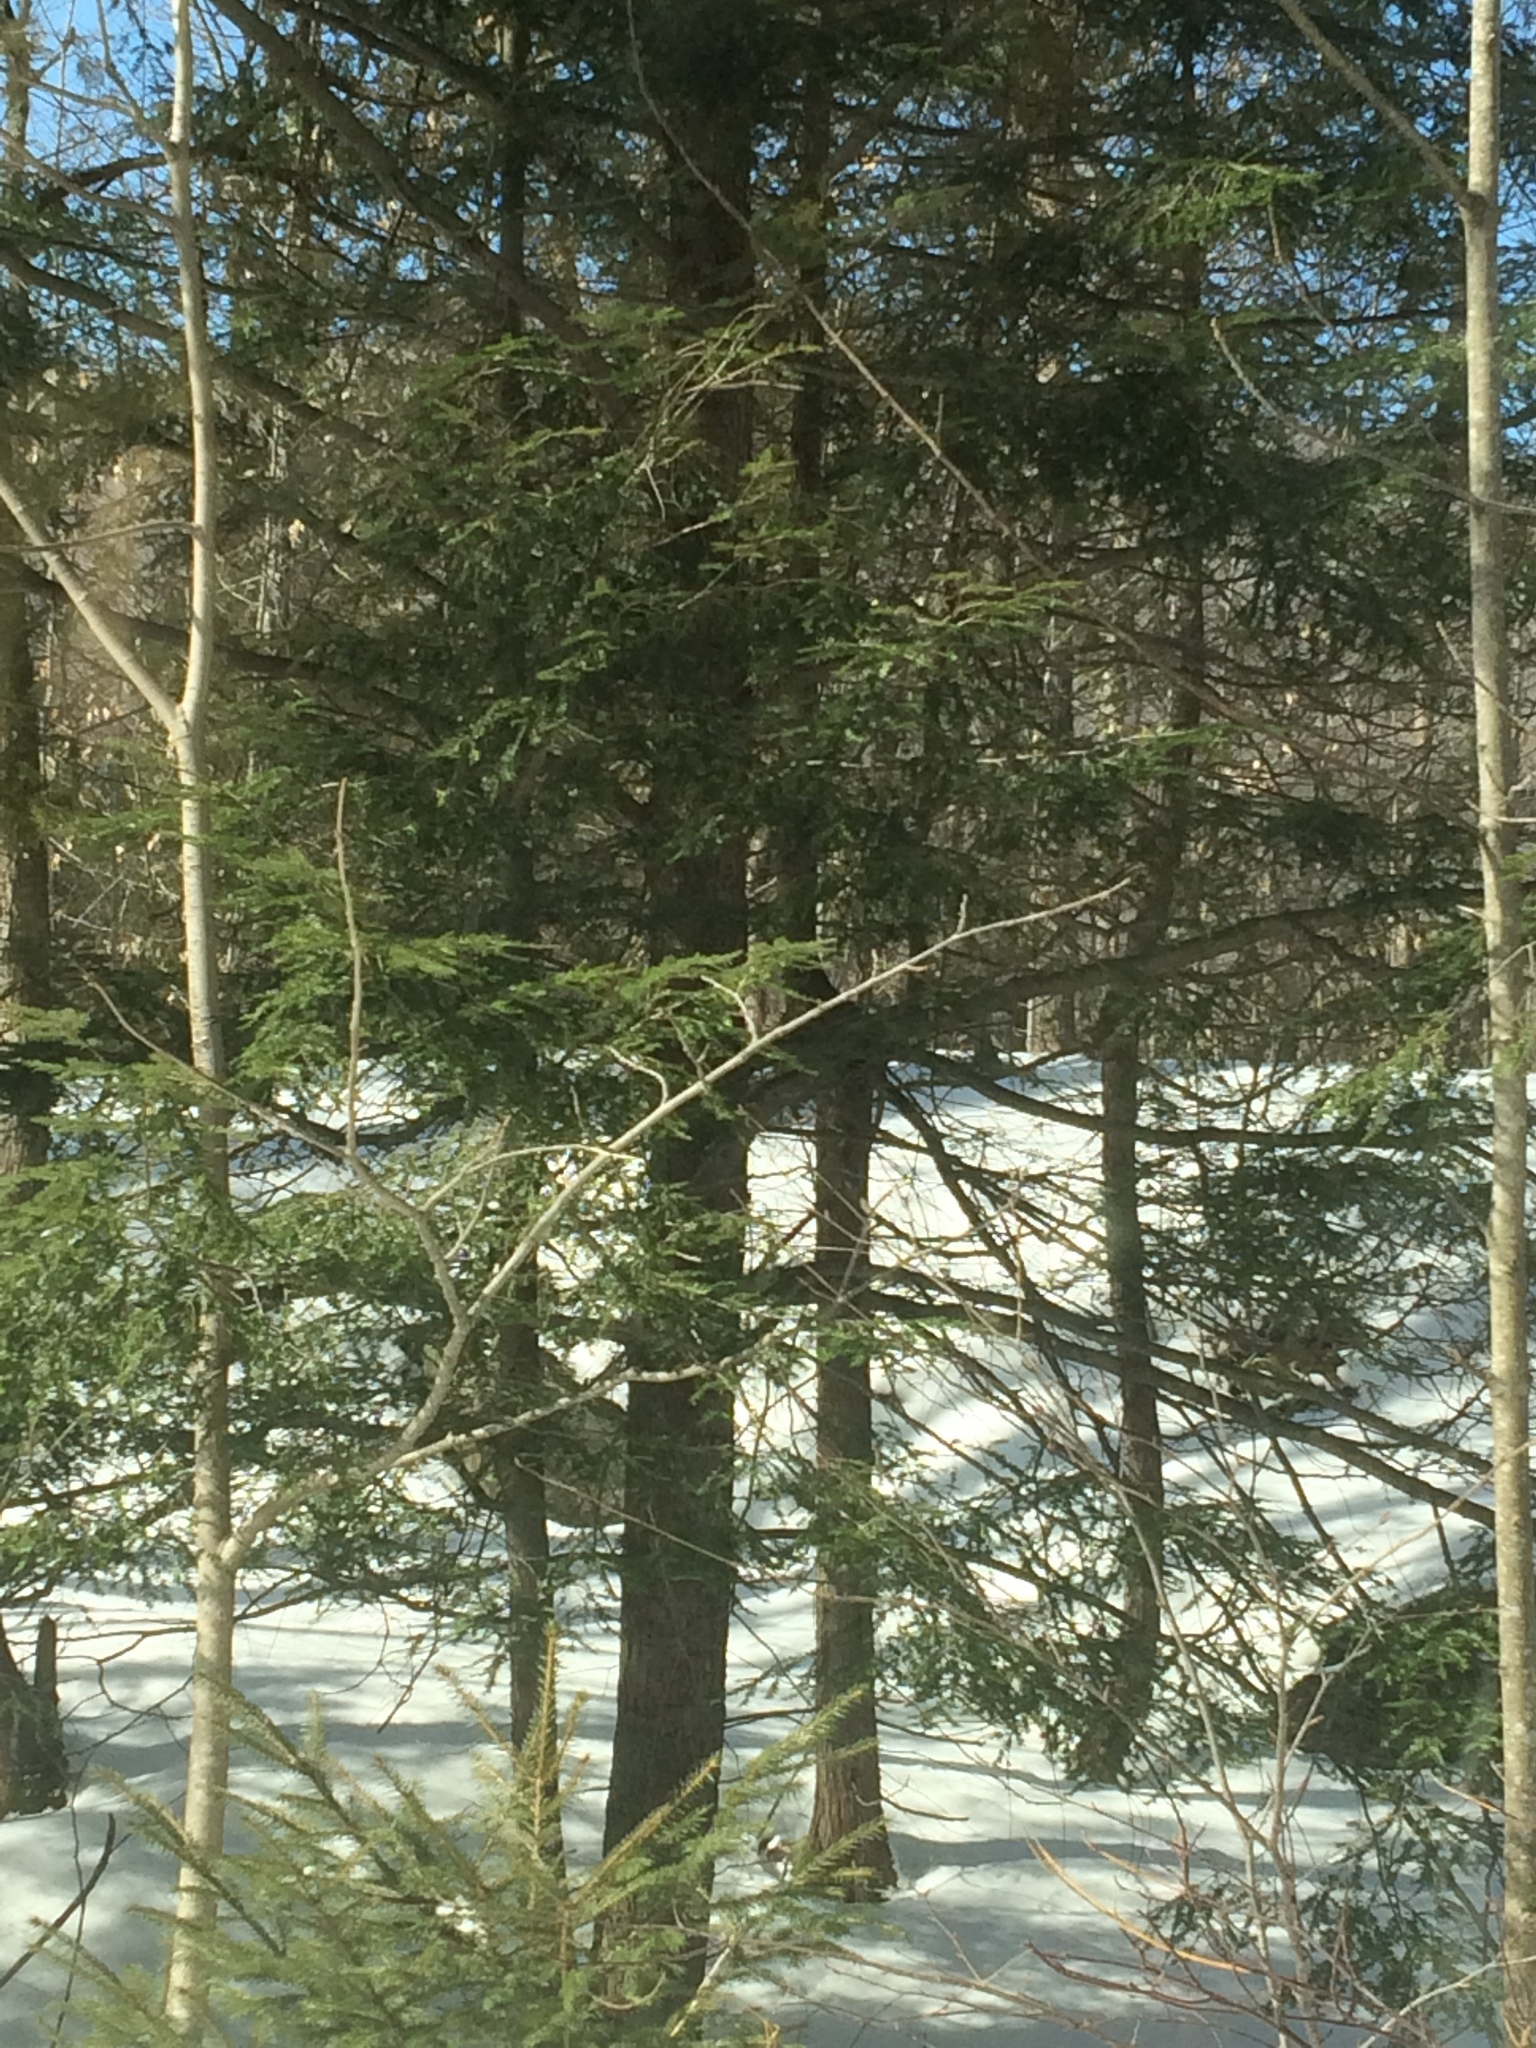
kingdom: Plantae
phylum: Tracheophyta
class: Pinopsida
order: Pinales
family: Pinaceae
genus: Tsuga
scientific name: Tsuga canadensis
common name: Eastern hemlock
